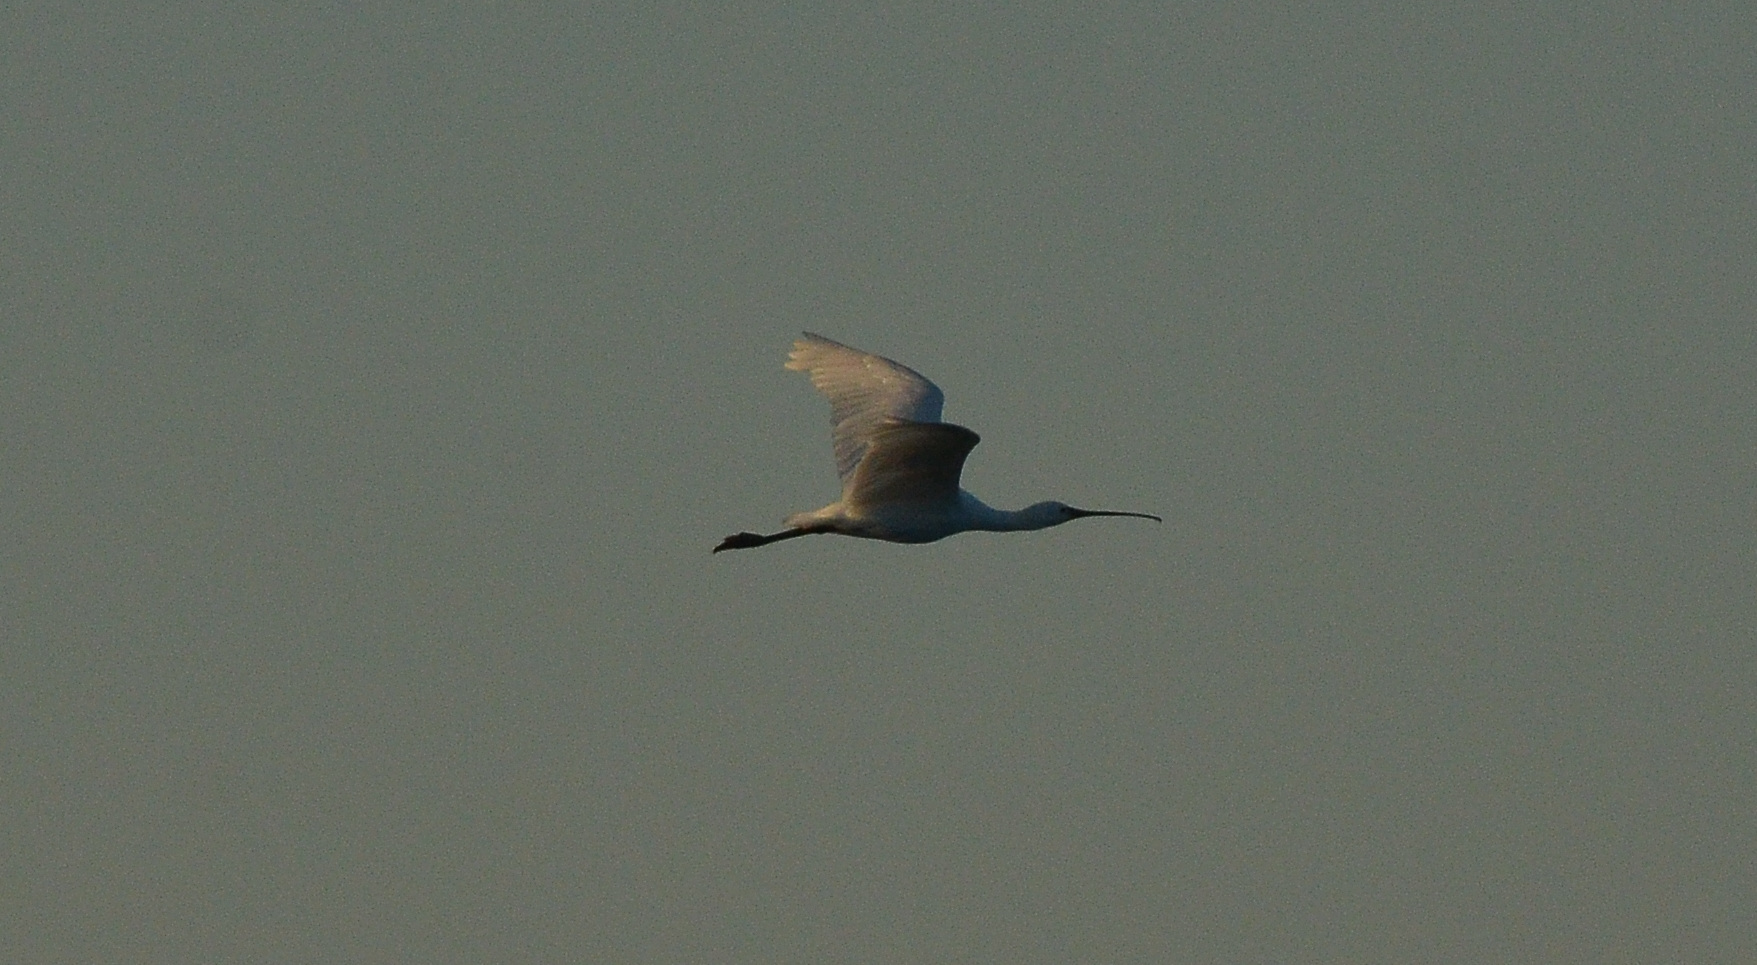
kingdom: Animalia
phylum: Chordata
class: Aves
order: Pelecaniformes
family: Threskiornithidae
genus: Platalea
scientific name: Platalea leucorodia
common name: Eurasian spoonbill
